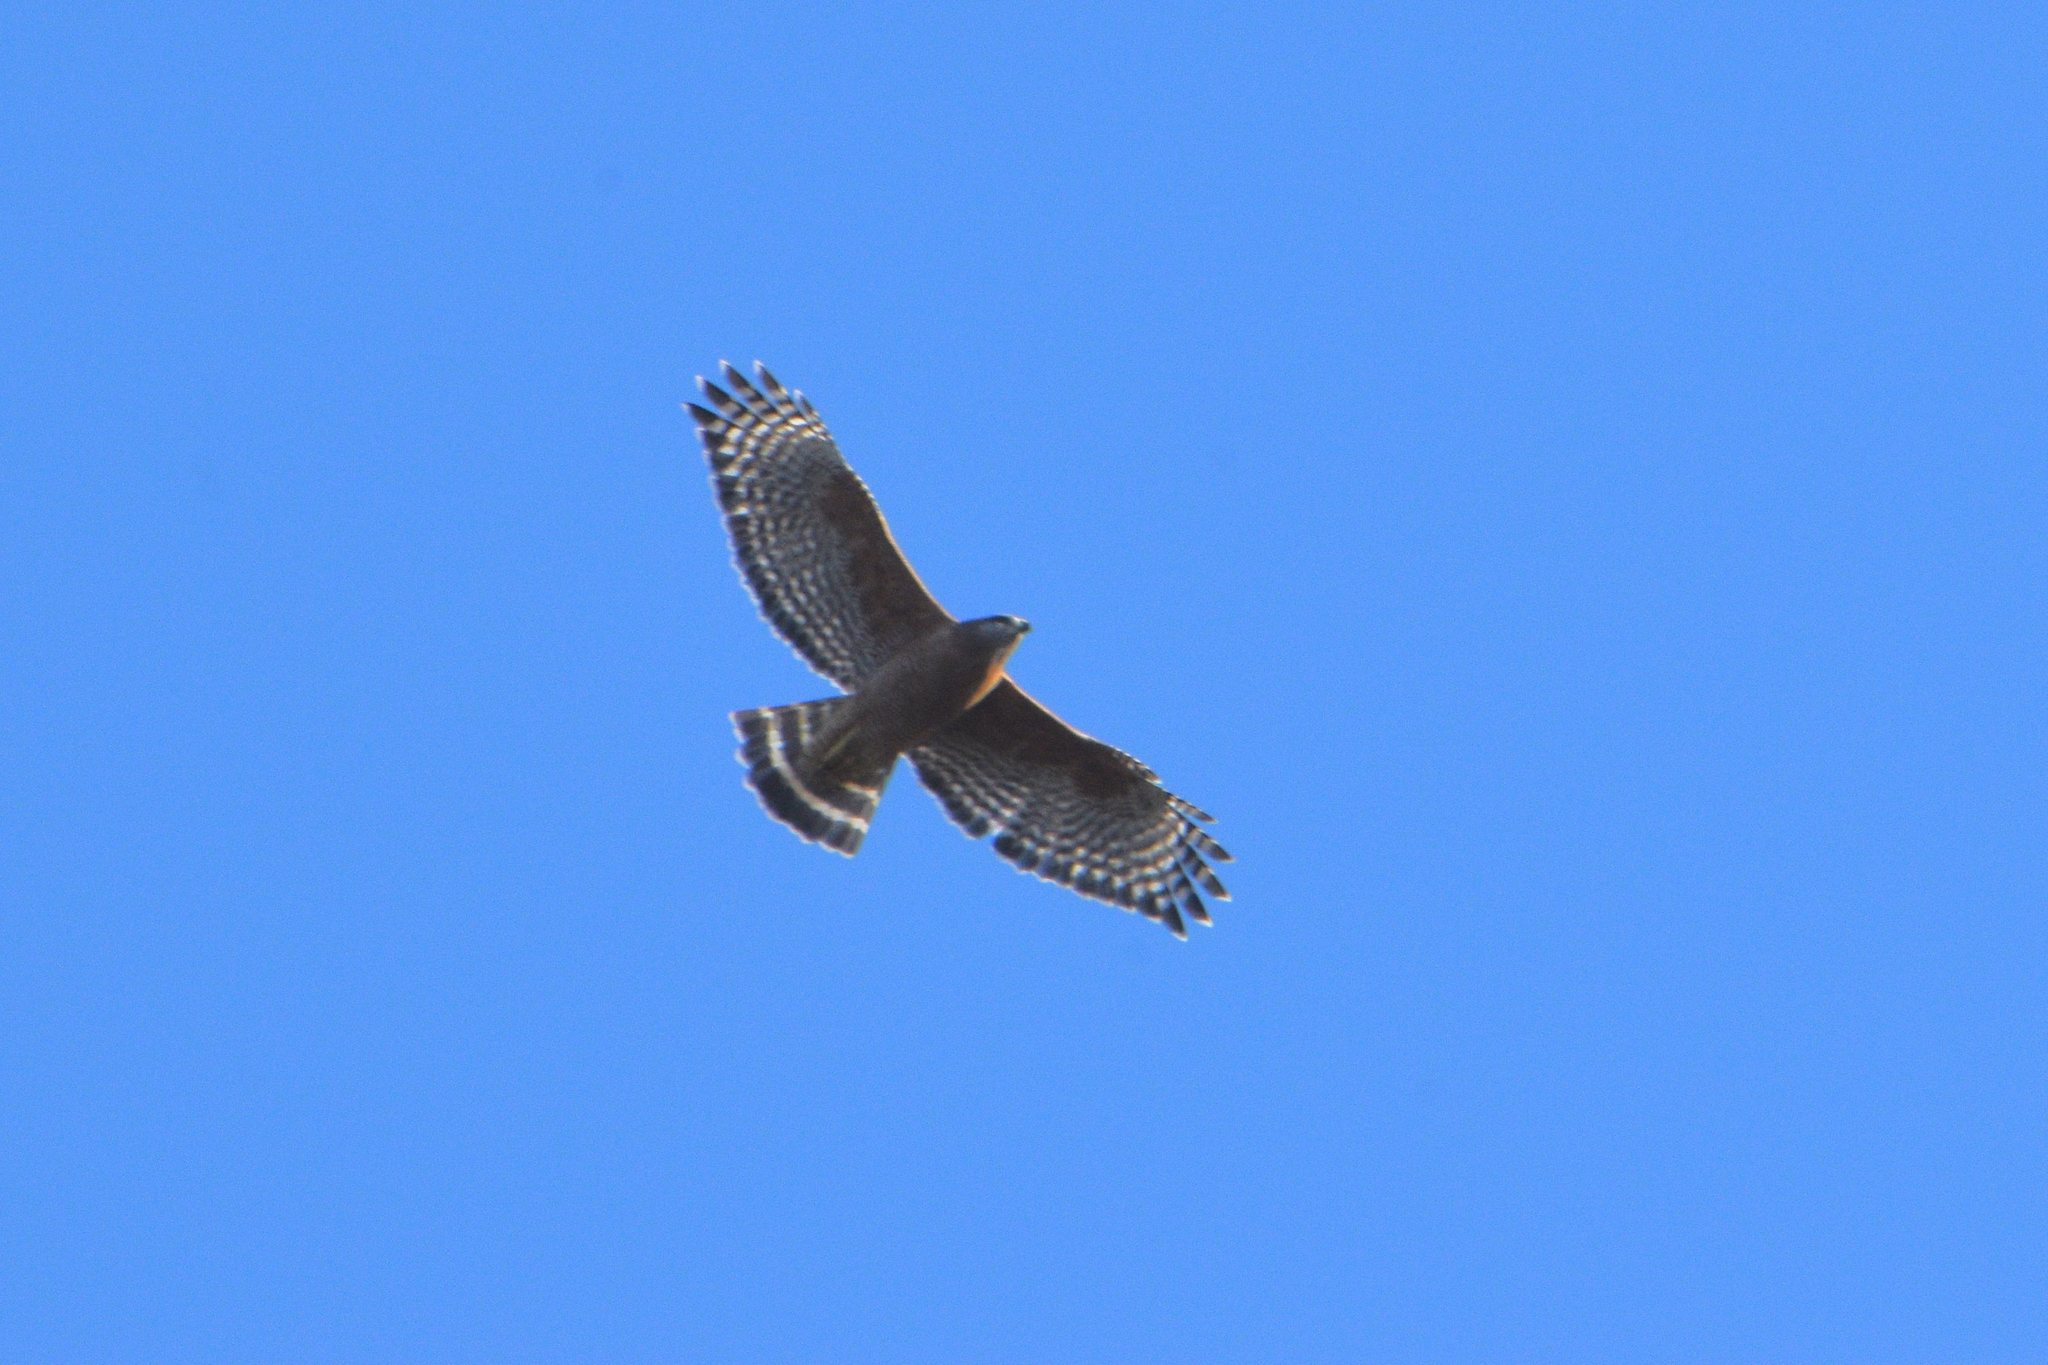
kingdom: Animalia
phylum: Chordata
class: Aves
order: Accipitriformes
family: Accipitridae
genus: Buteo
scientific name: Buteo lineatus
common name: Red-shouldered hawk
